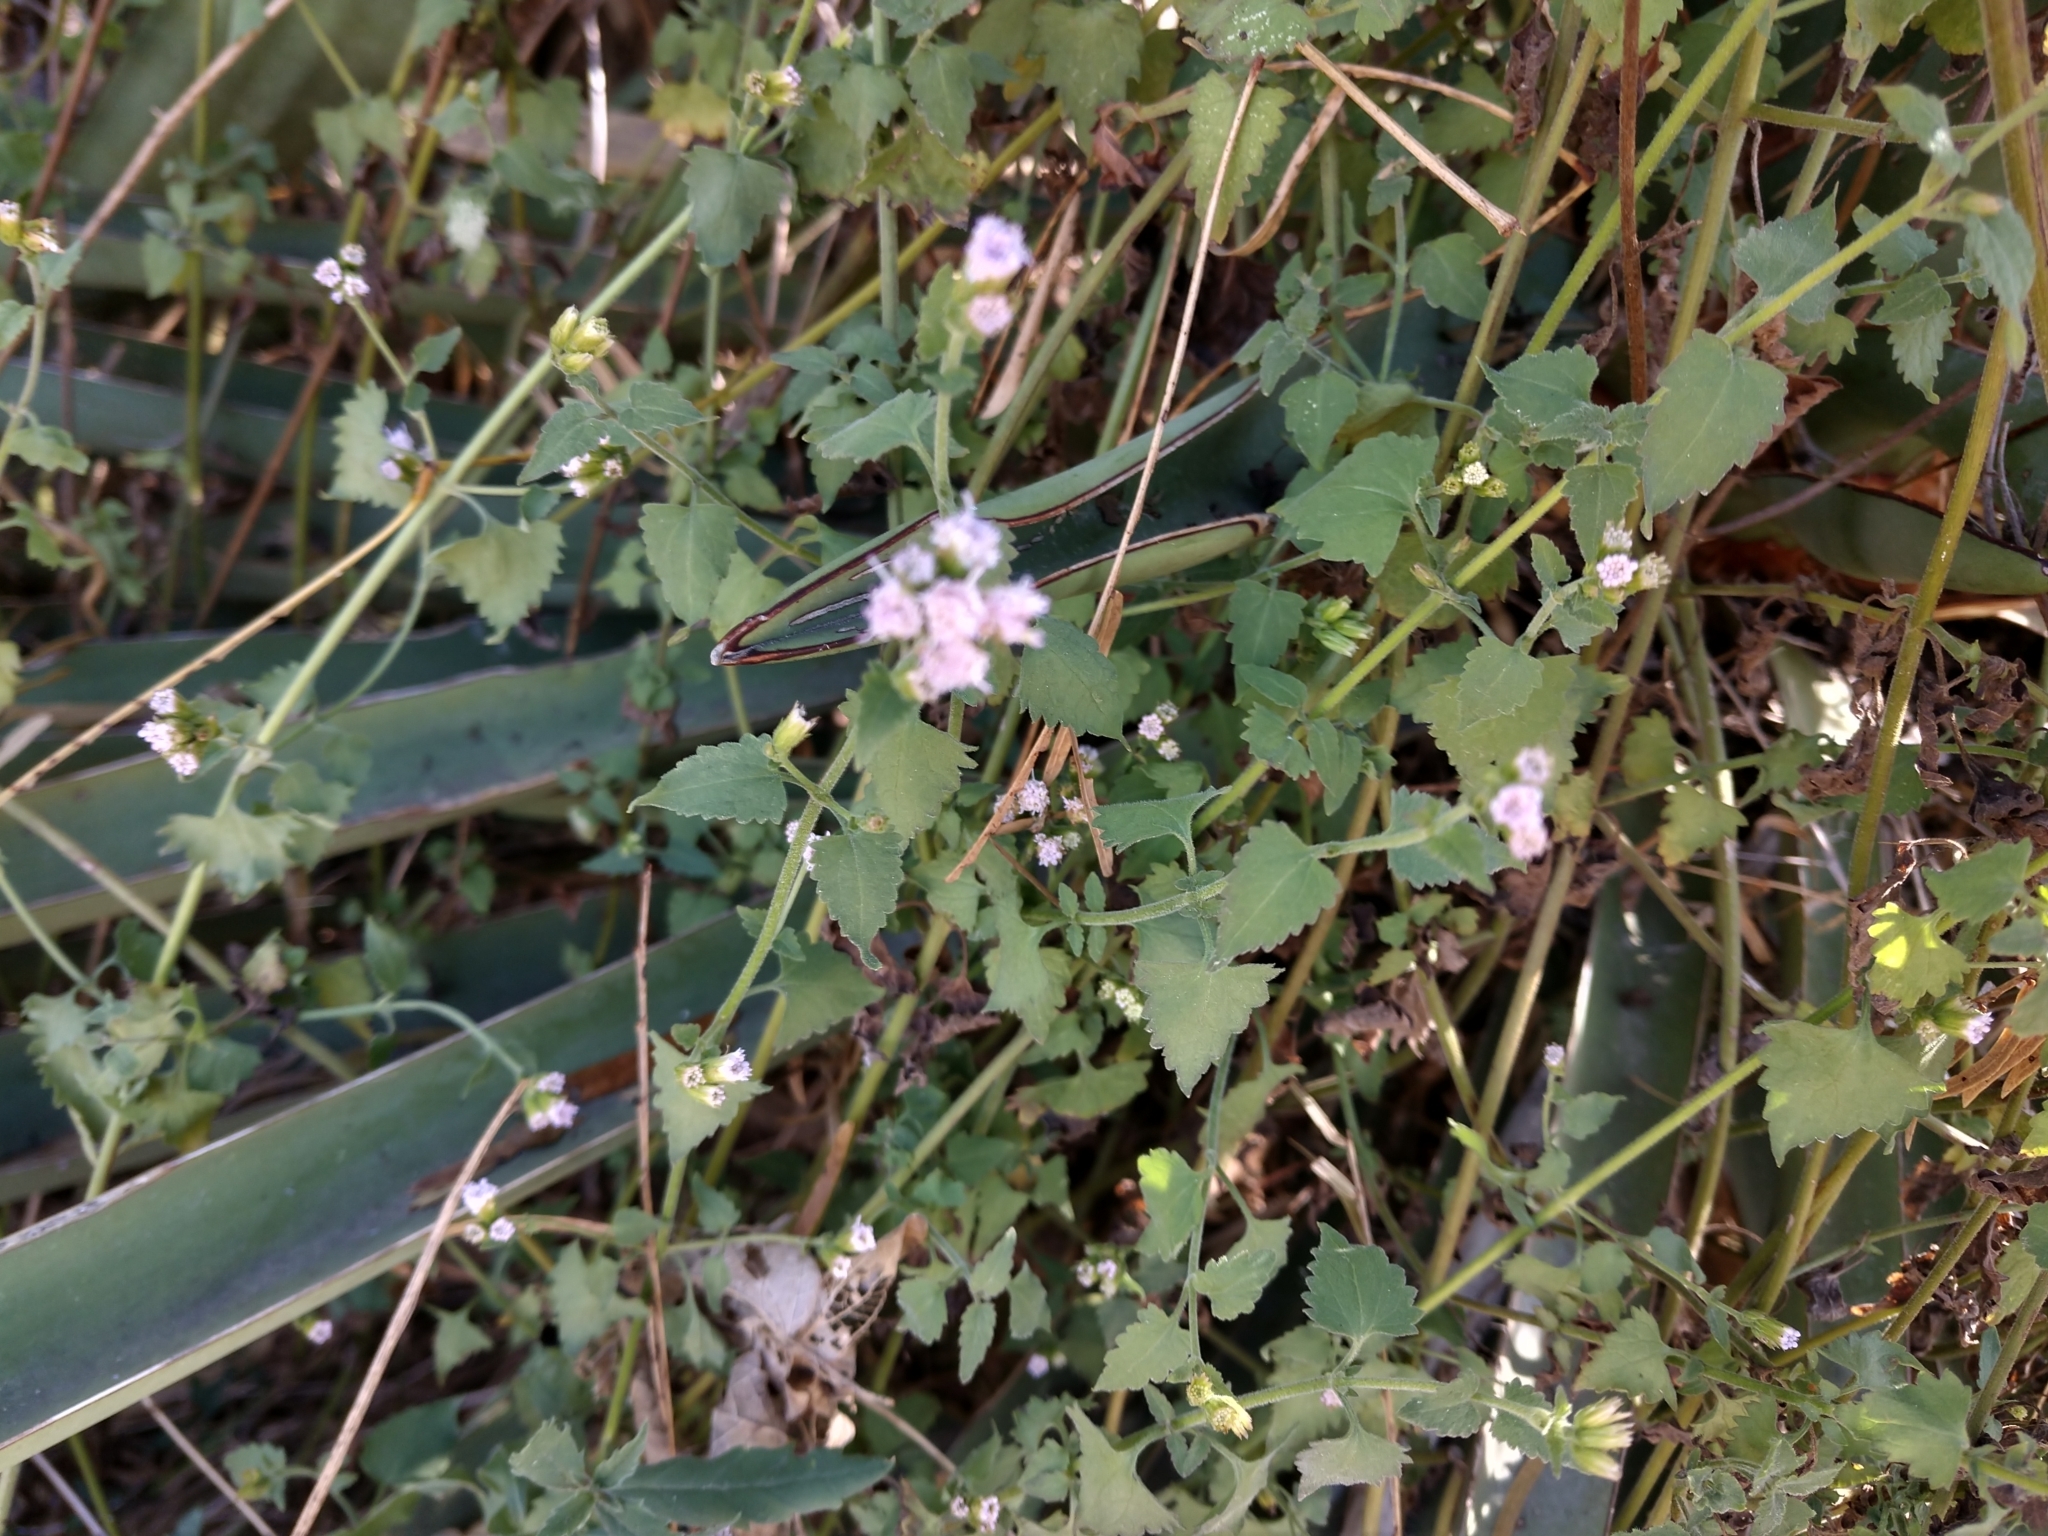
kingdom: Plantae
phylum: Tracheophyta
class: Magnoliopsida
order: Asterales
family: Asteraceae
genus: Fleischmannia
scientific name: Fleischmannia incarnata
